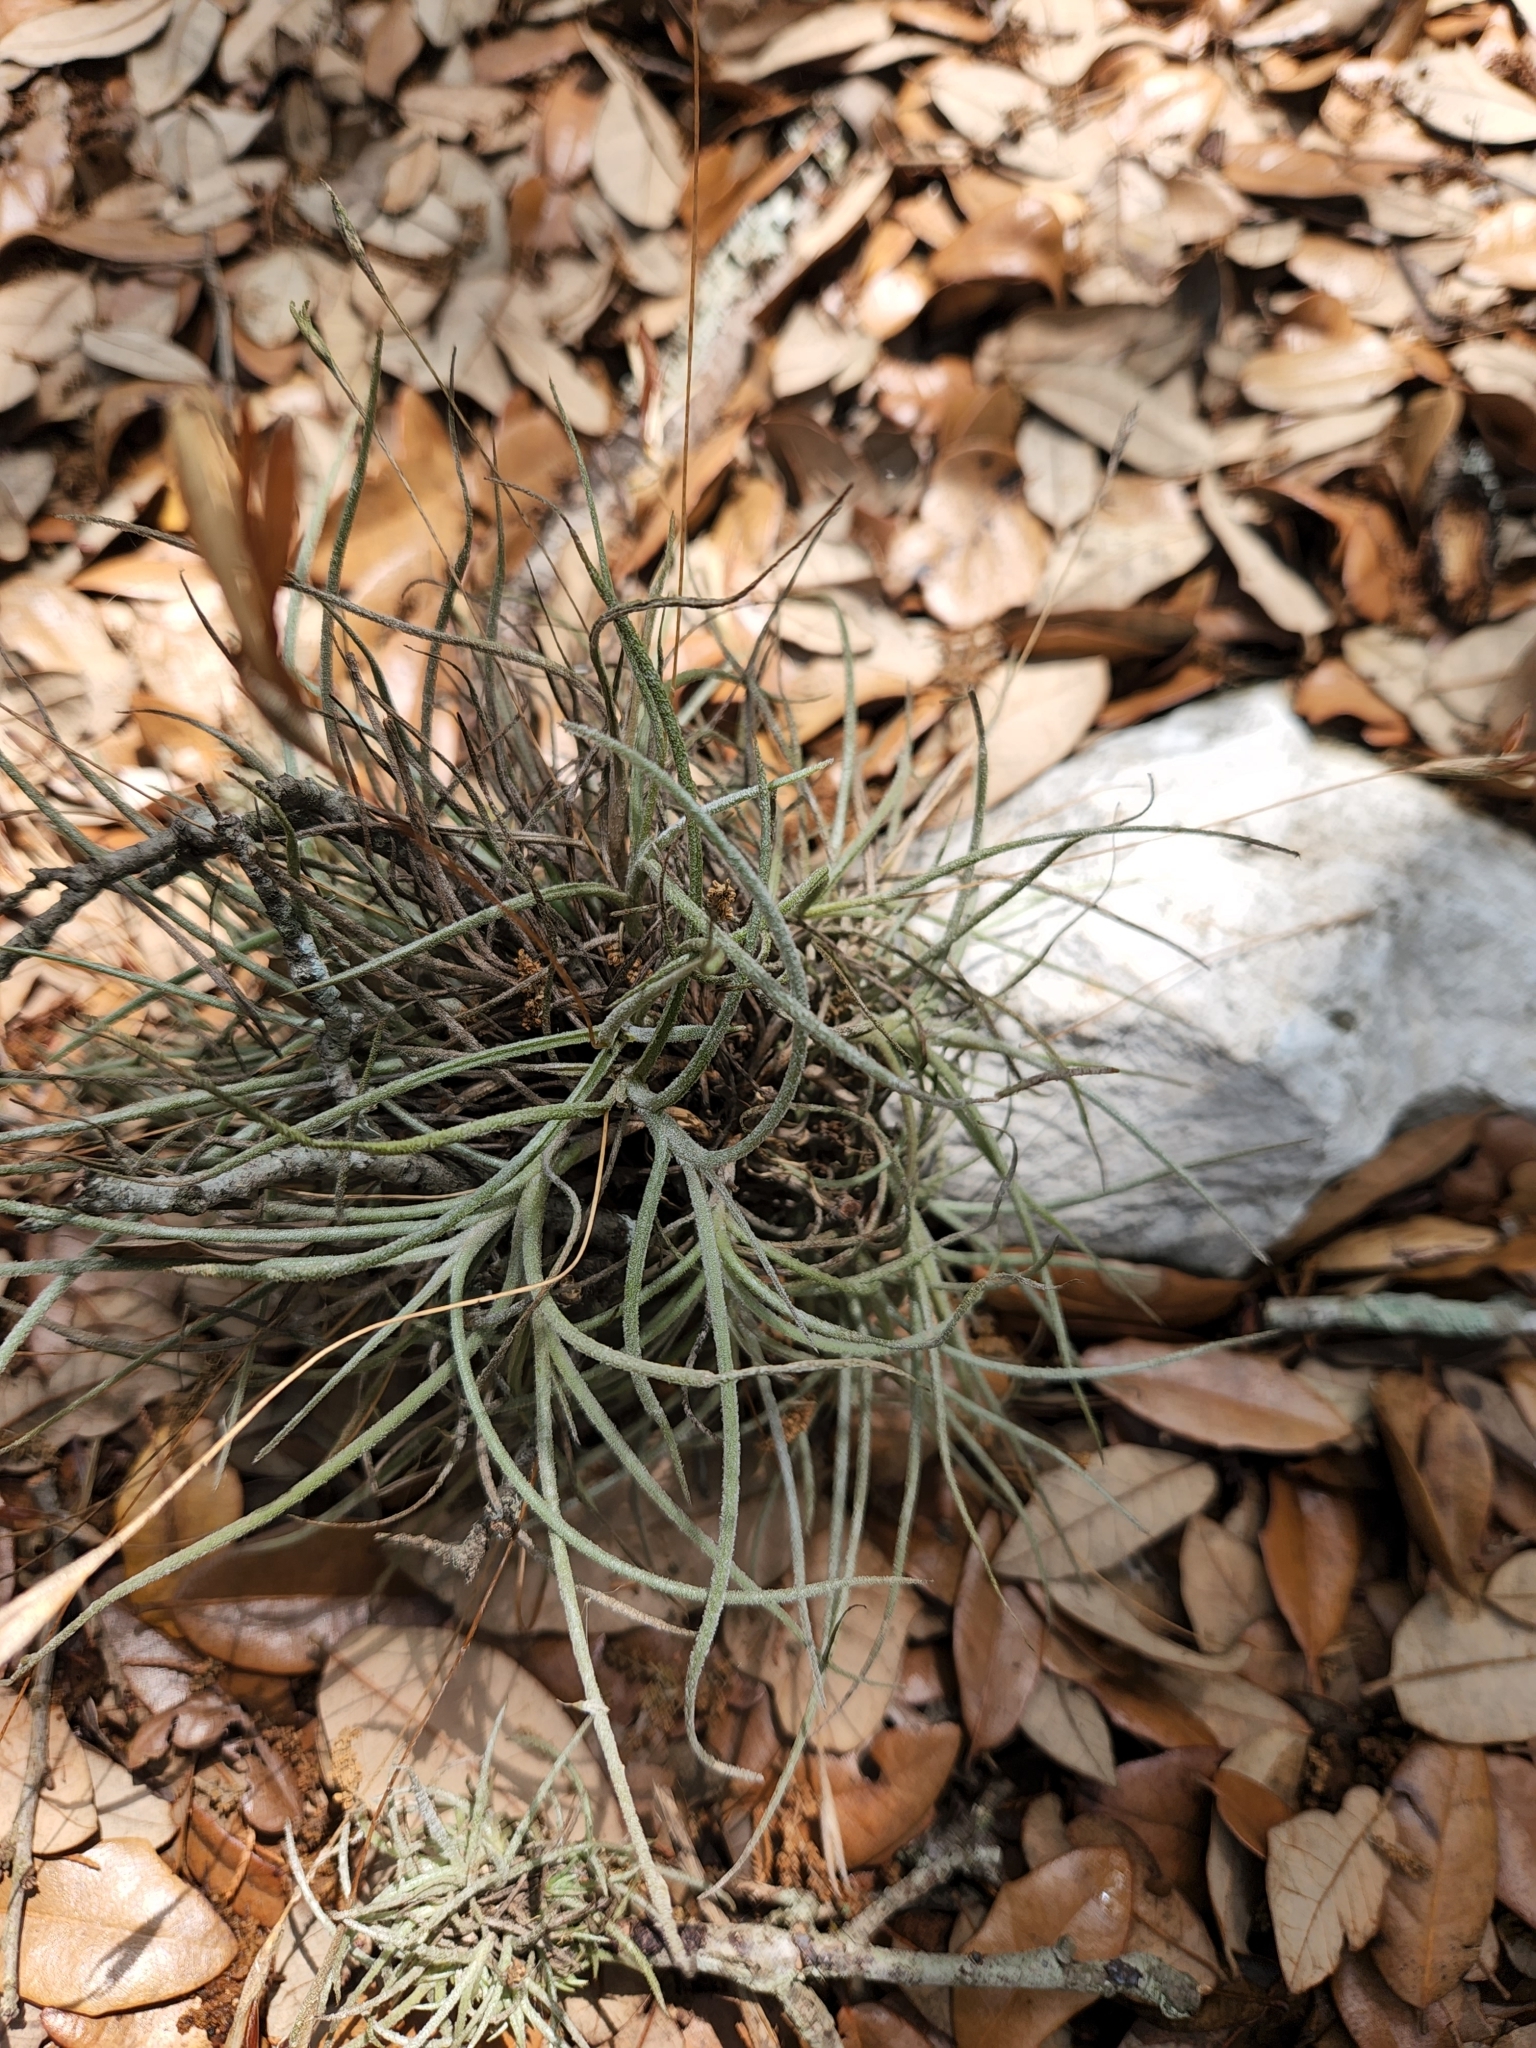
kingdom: Plantae
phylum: Tracheophyta
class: Liliopsida
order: Poales
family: Bromeliaceae
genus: Tillandsia
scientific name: Tillandsia recurvata
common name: Small ballmoss
